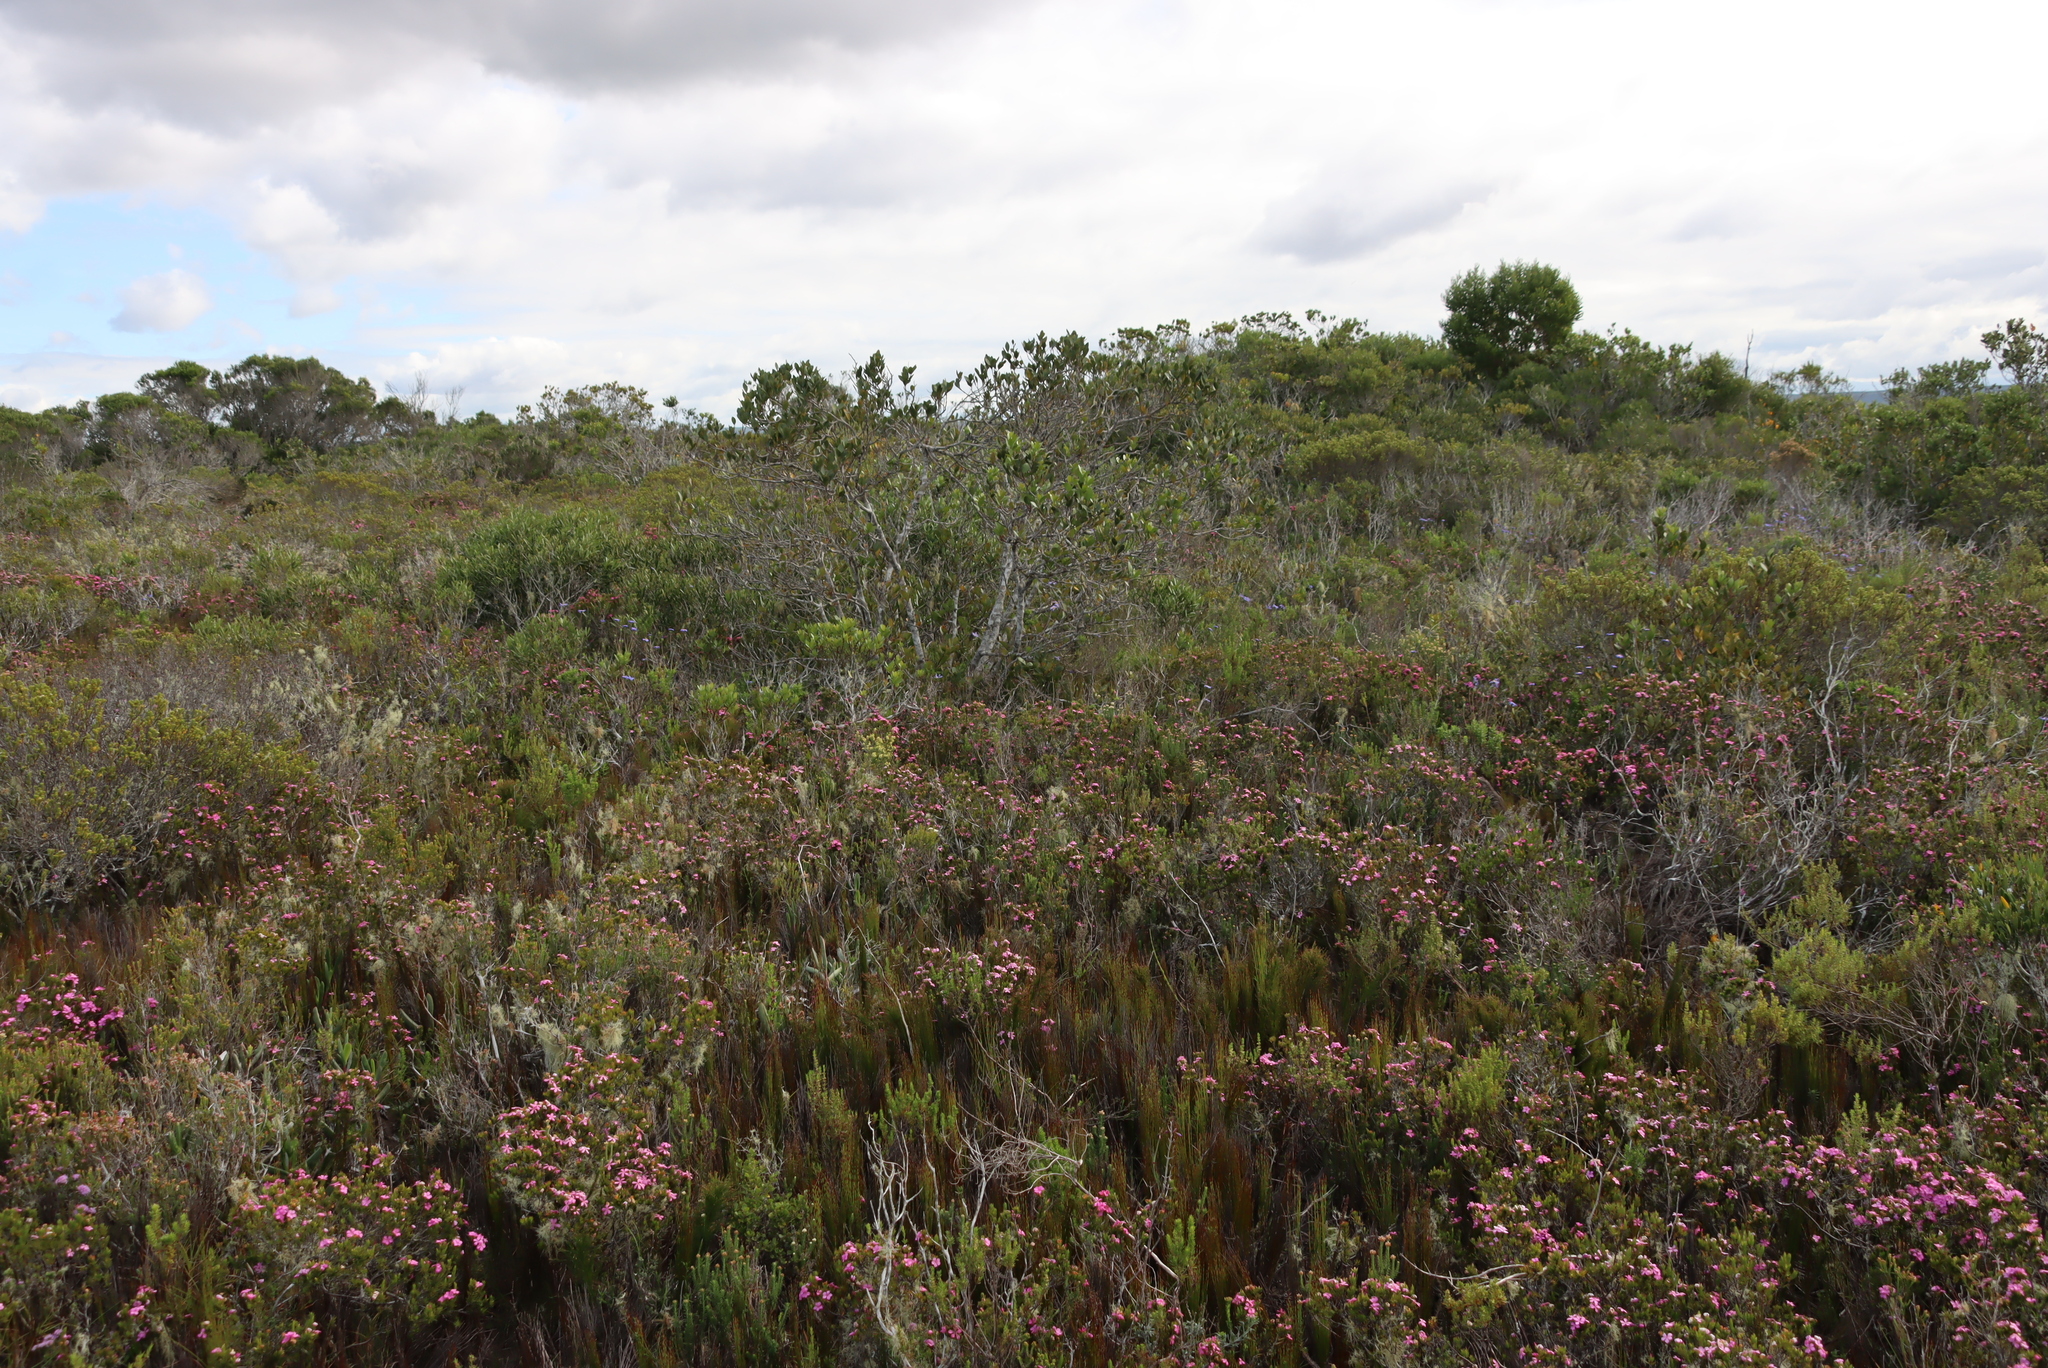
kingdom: Plantae
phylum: Tracheophyta
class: Magnoliopsida
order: Celastrales
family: Celastraceae
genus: Pterocelastrus
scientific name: Pterocelastrus tricuspidatus
